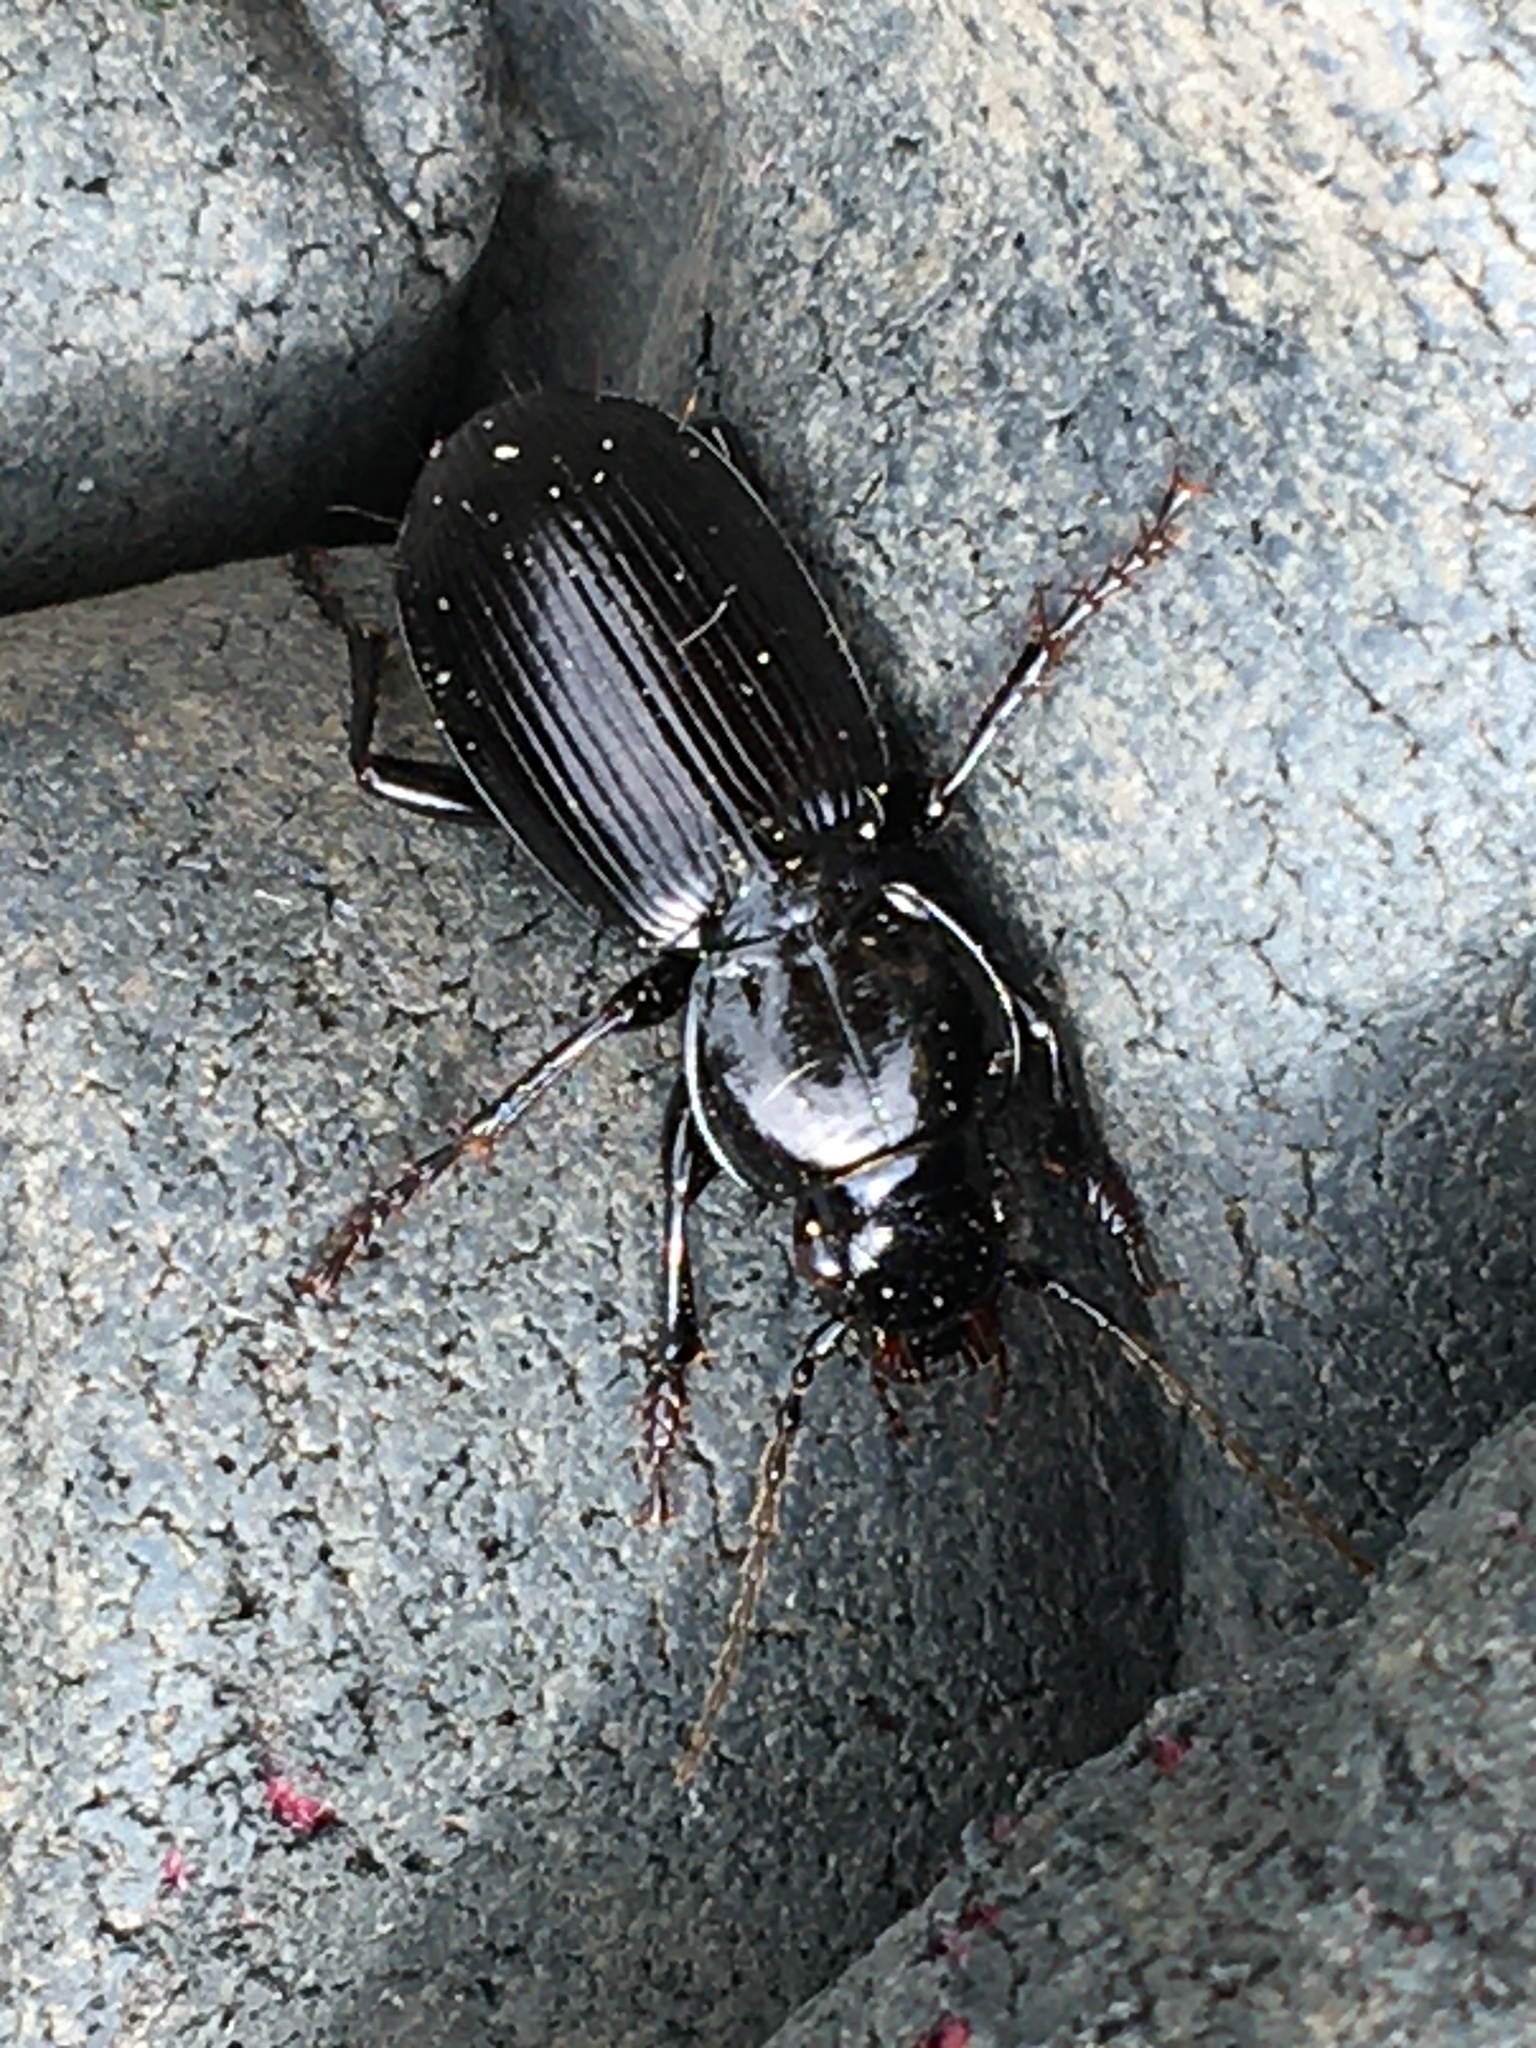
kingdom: Animalia
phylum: Arthropoda
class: Insecta
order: Coleoptera
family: Carabidae
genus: Pterostichus
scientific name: Pterostichus madidus
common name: Black clock
